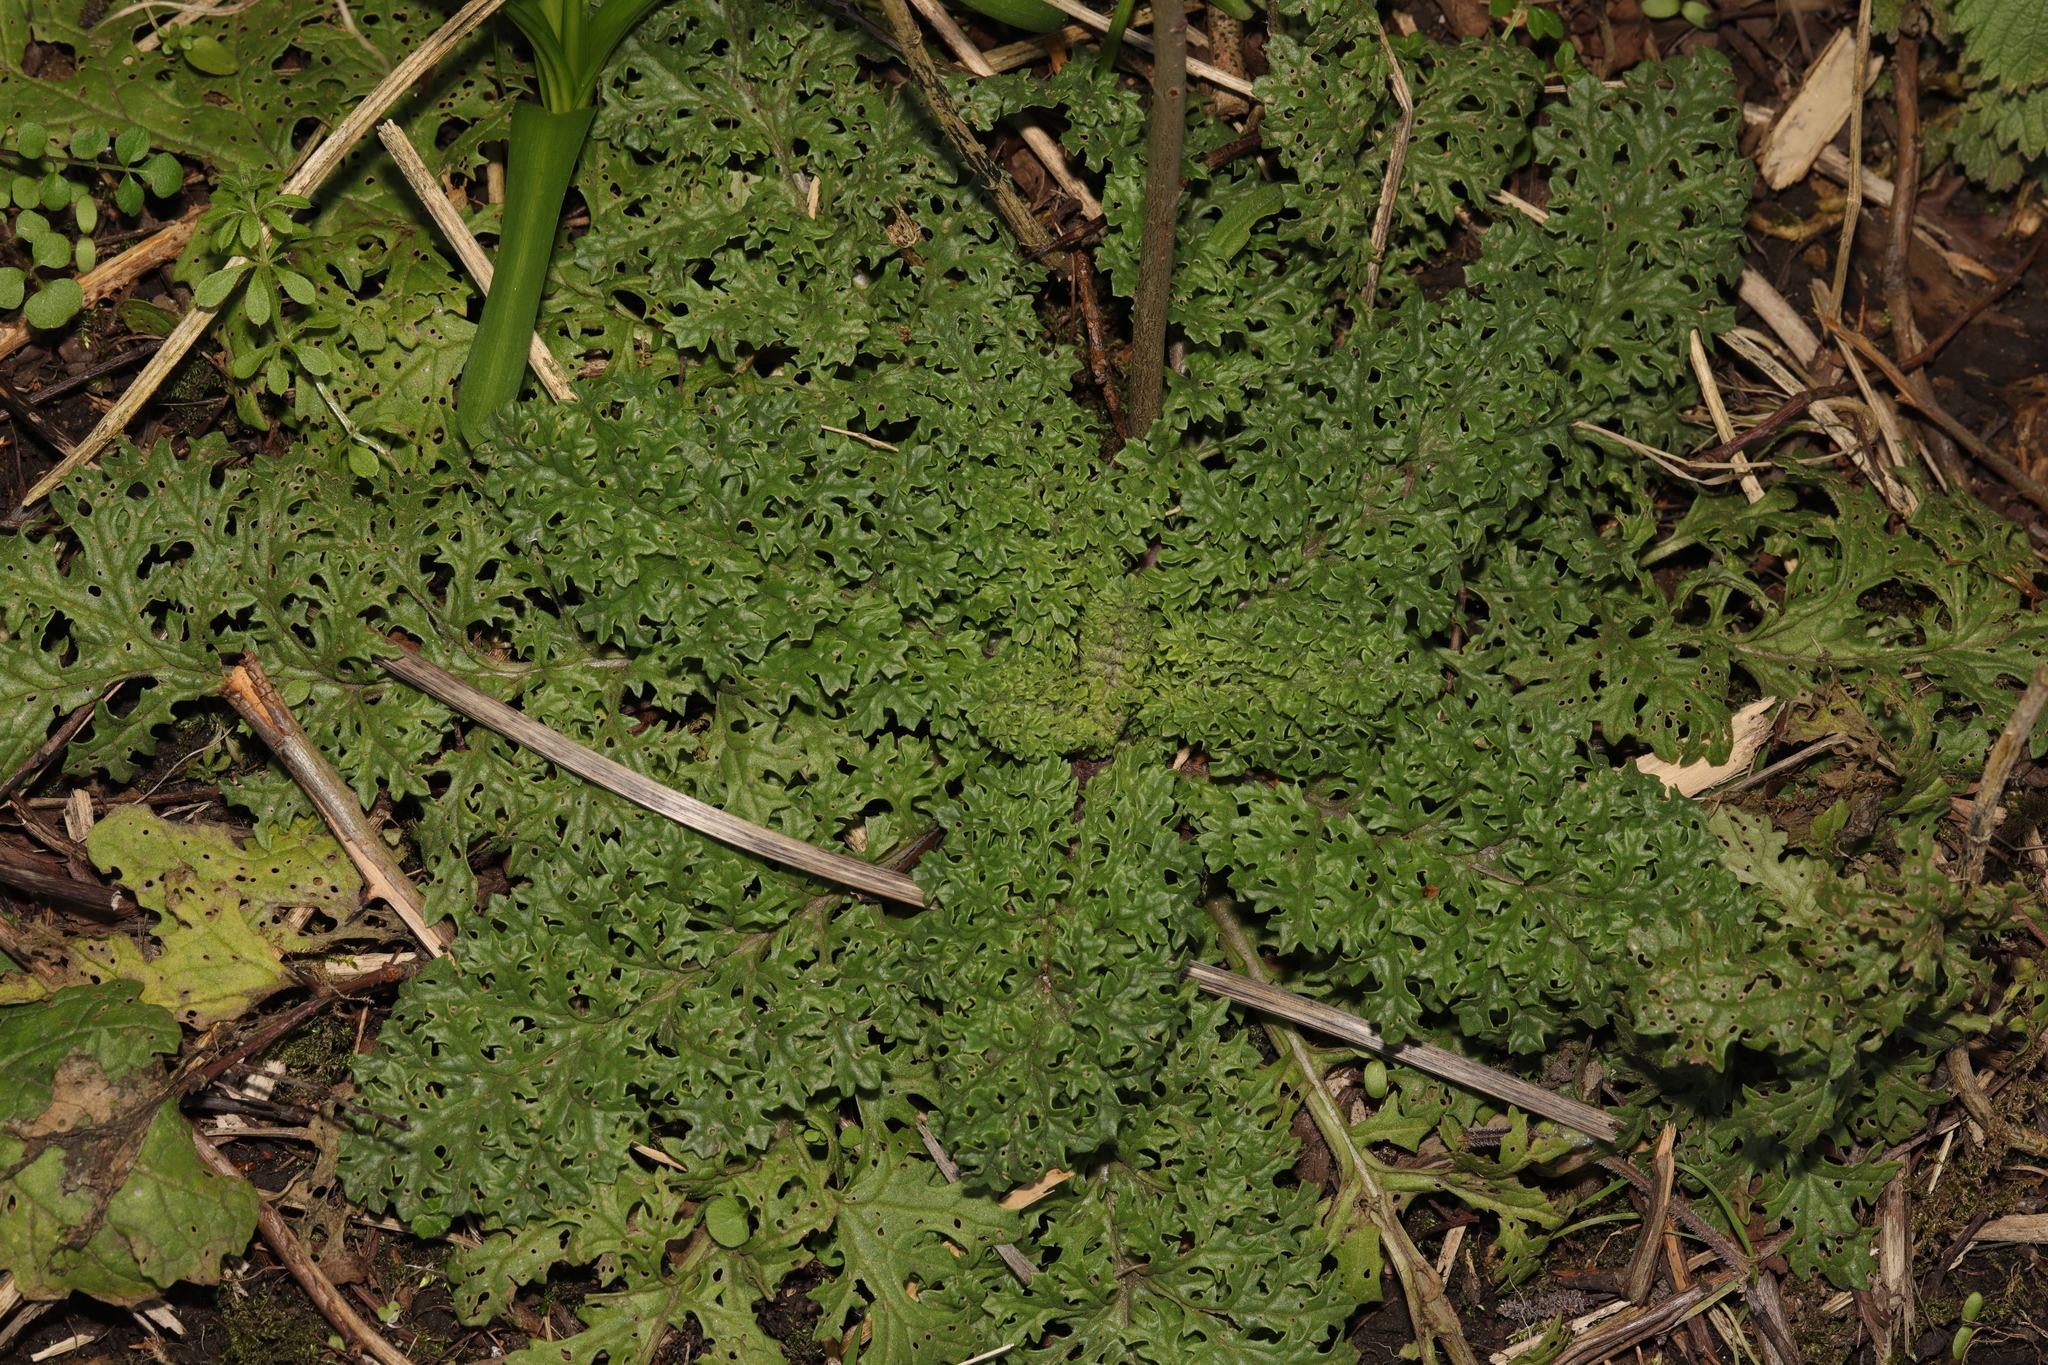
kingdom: Plantae
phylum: Tracheophyta
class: Magnoliopsida
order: Asterales
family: Asteraceae
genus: Jacobaea
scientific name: Jacobaea vulgaris
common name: Stinking willie
